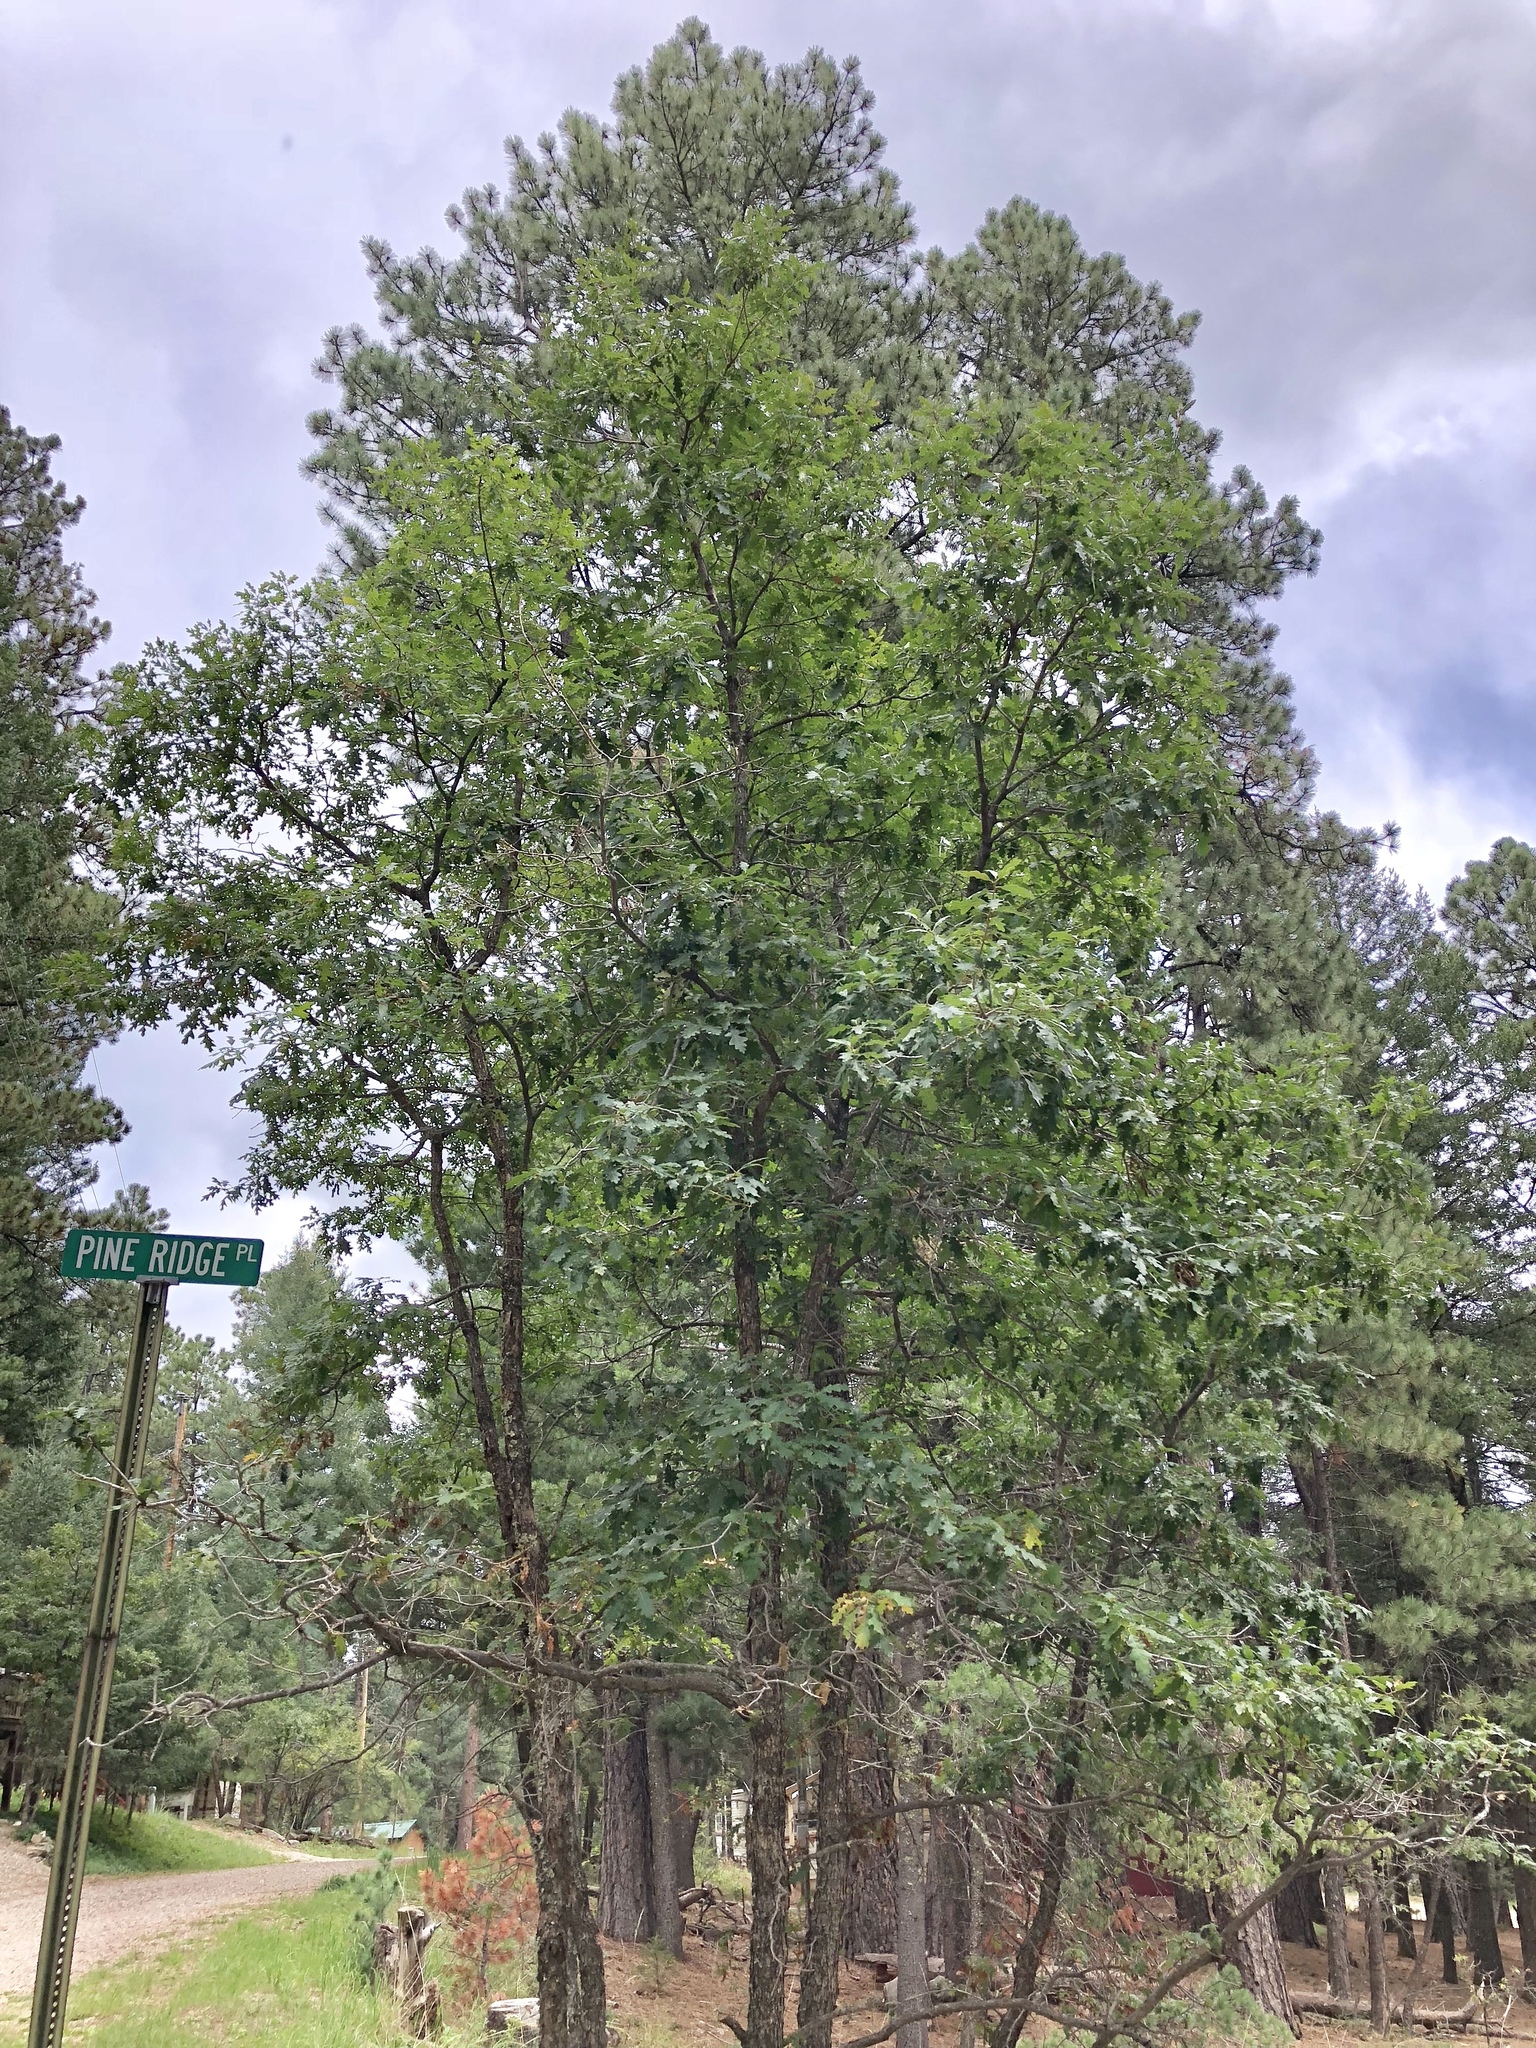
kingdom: Plantae
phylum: Tracheophyta
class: Magnoliopsida
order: Fagales
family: Fagaceae
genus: Quercus
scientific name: Quercus gambelii
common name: Gambel oak
